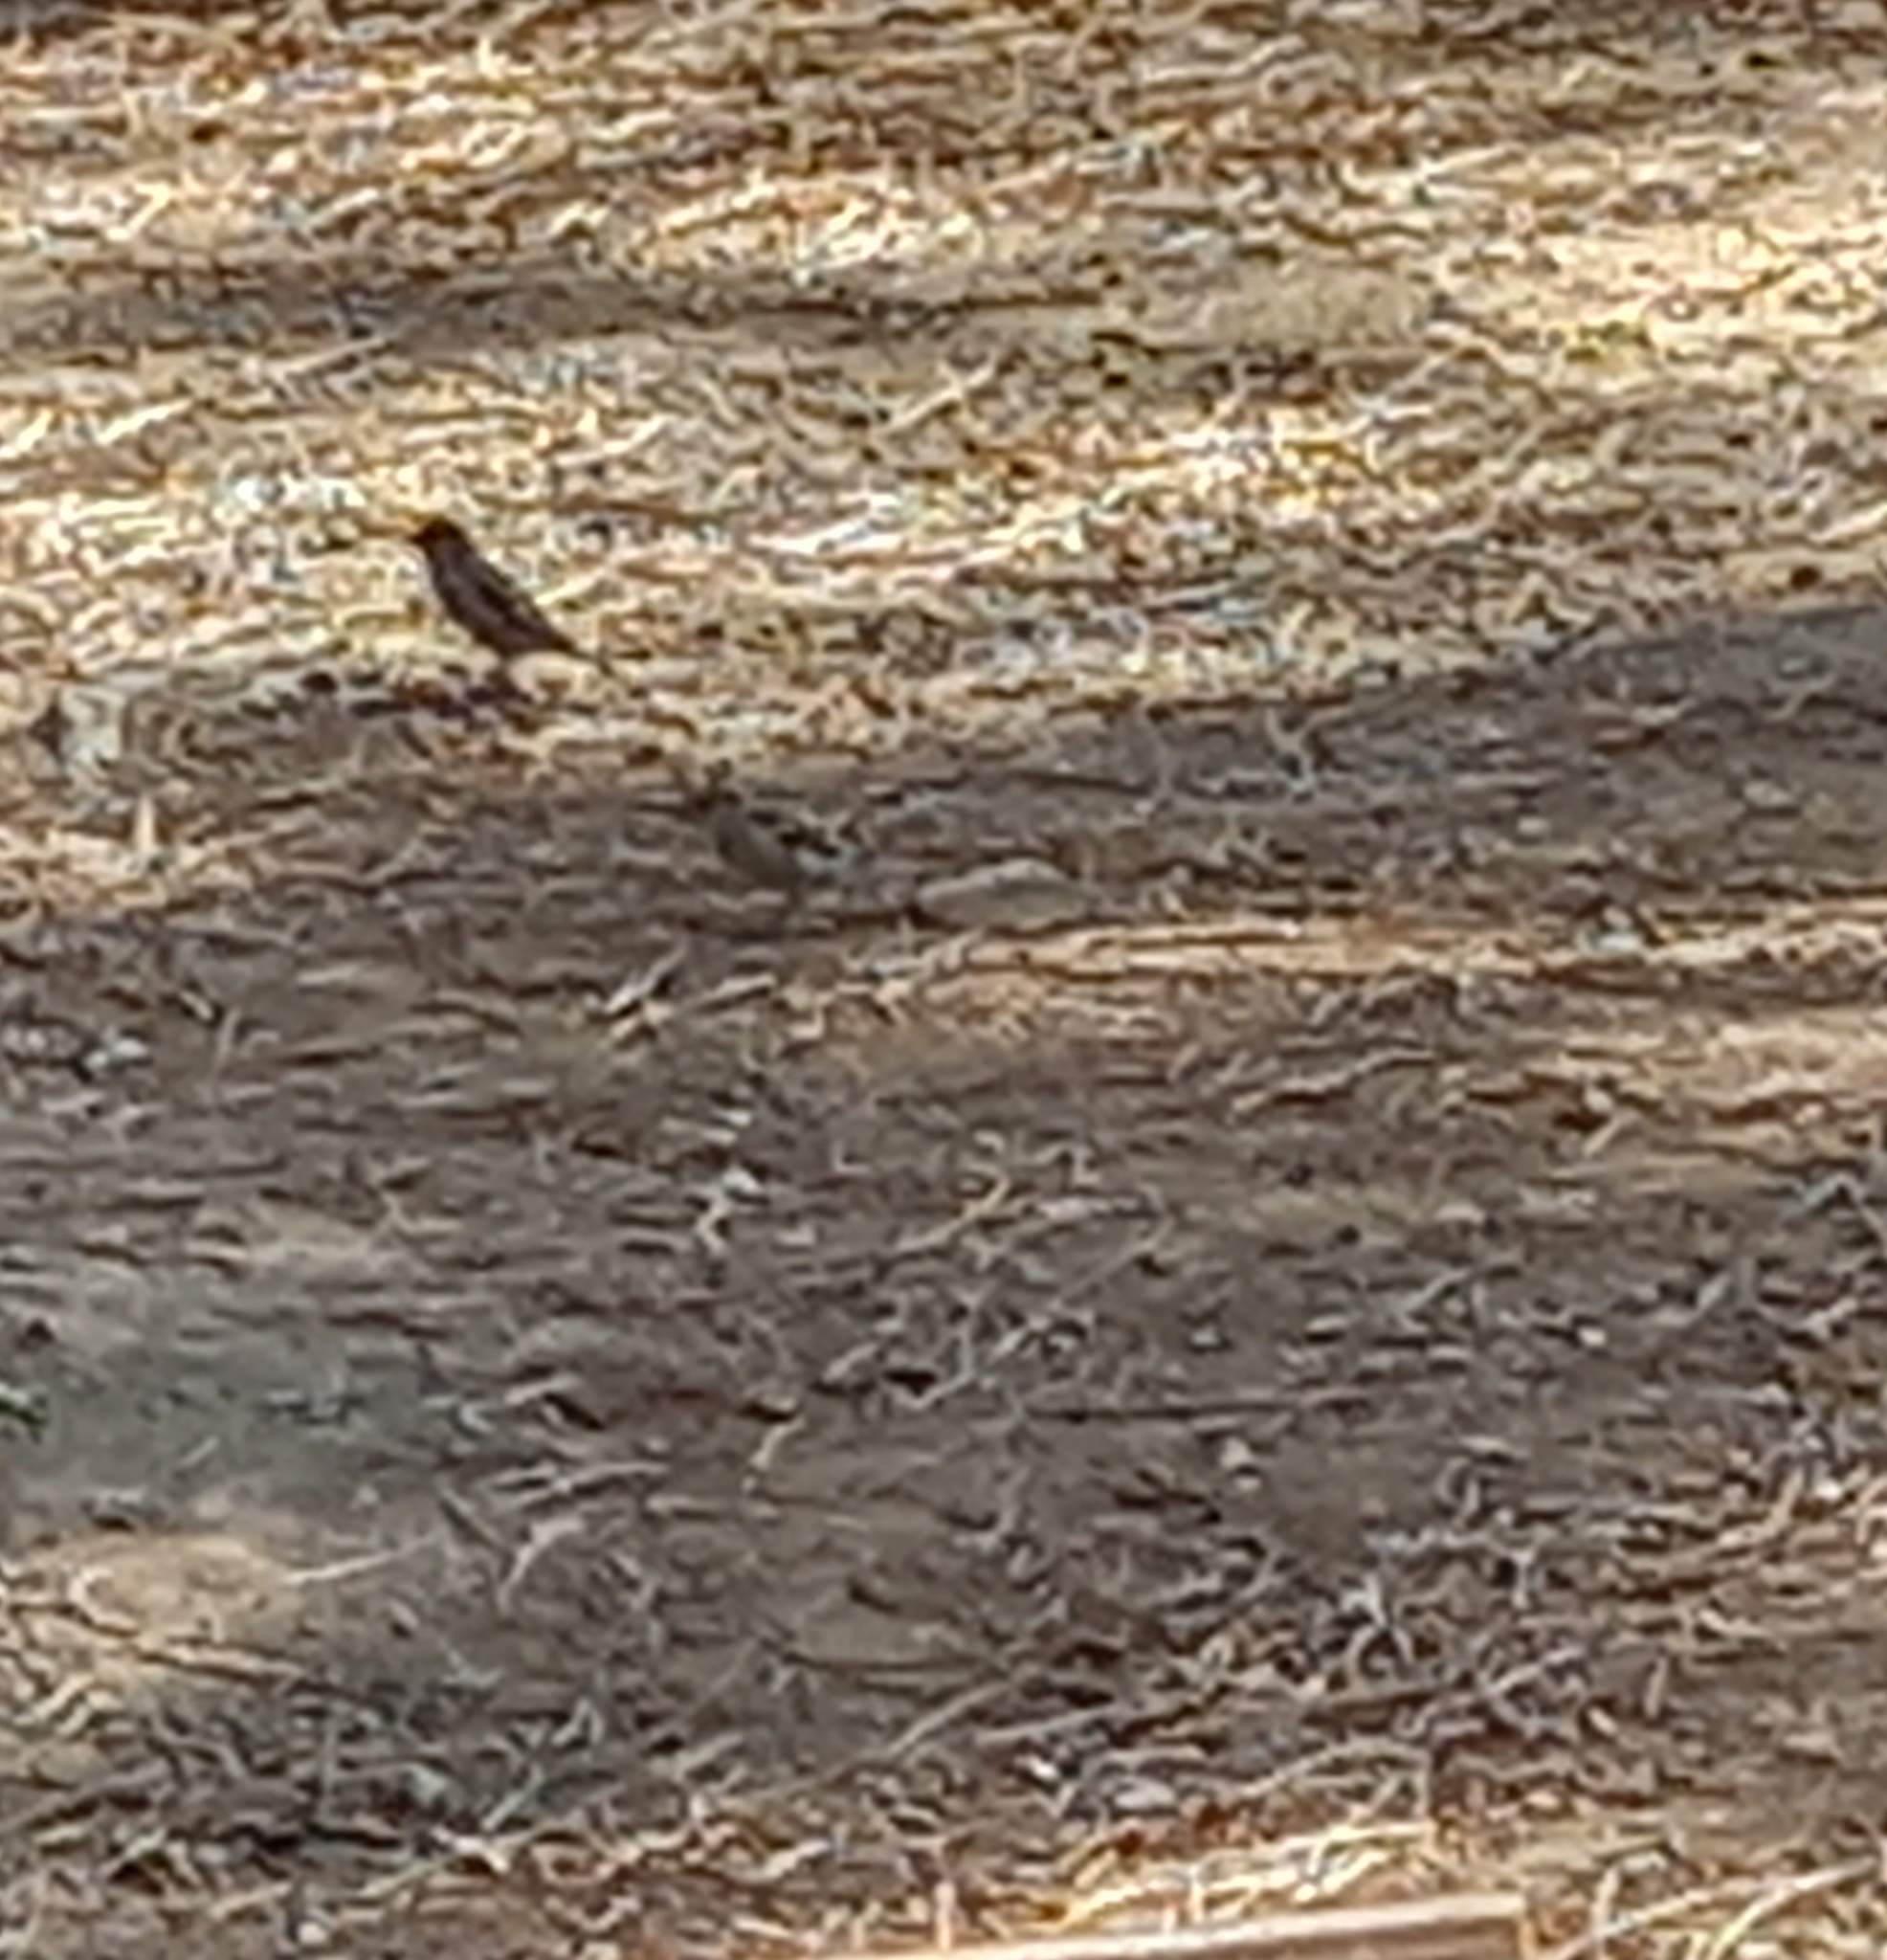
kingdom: Animalia
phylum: Chordata
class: Aves
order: Passeriformes
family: Passeridae
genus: Passer
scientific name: Passer domesticus
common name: House sparrow
